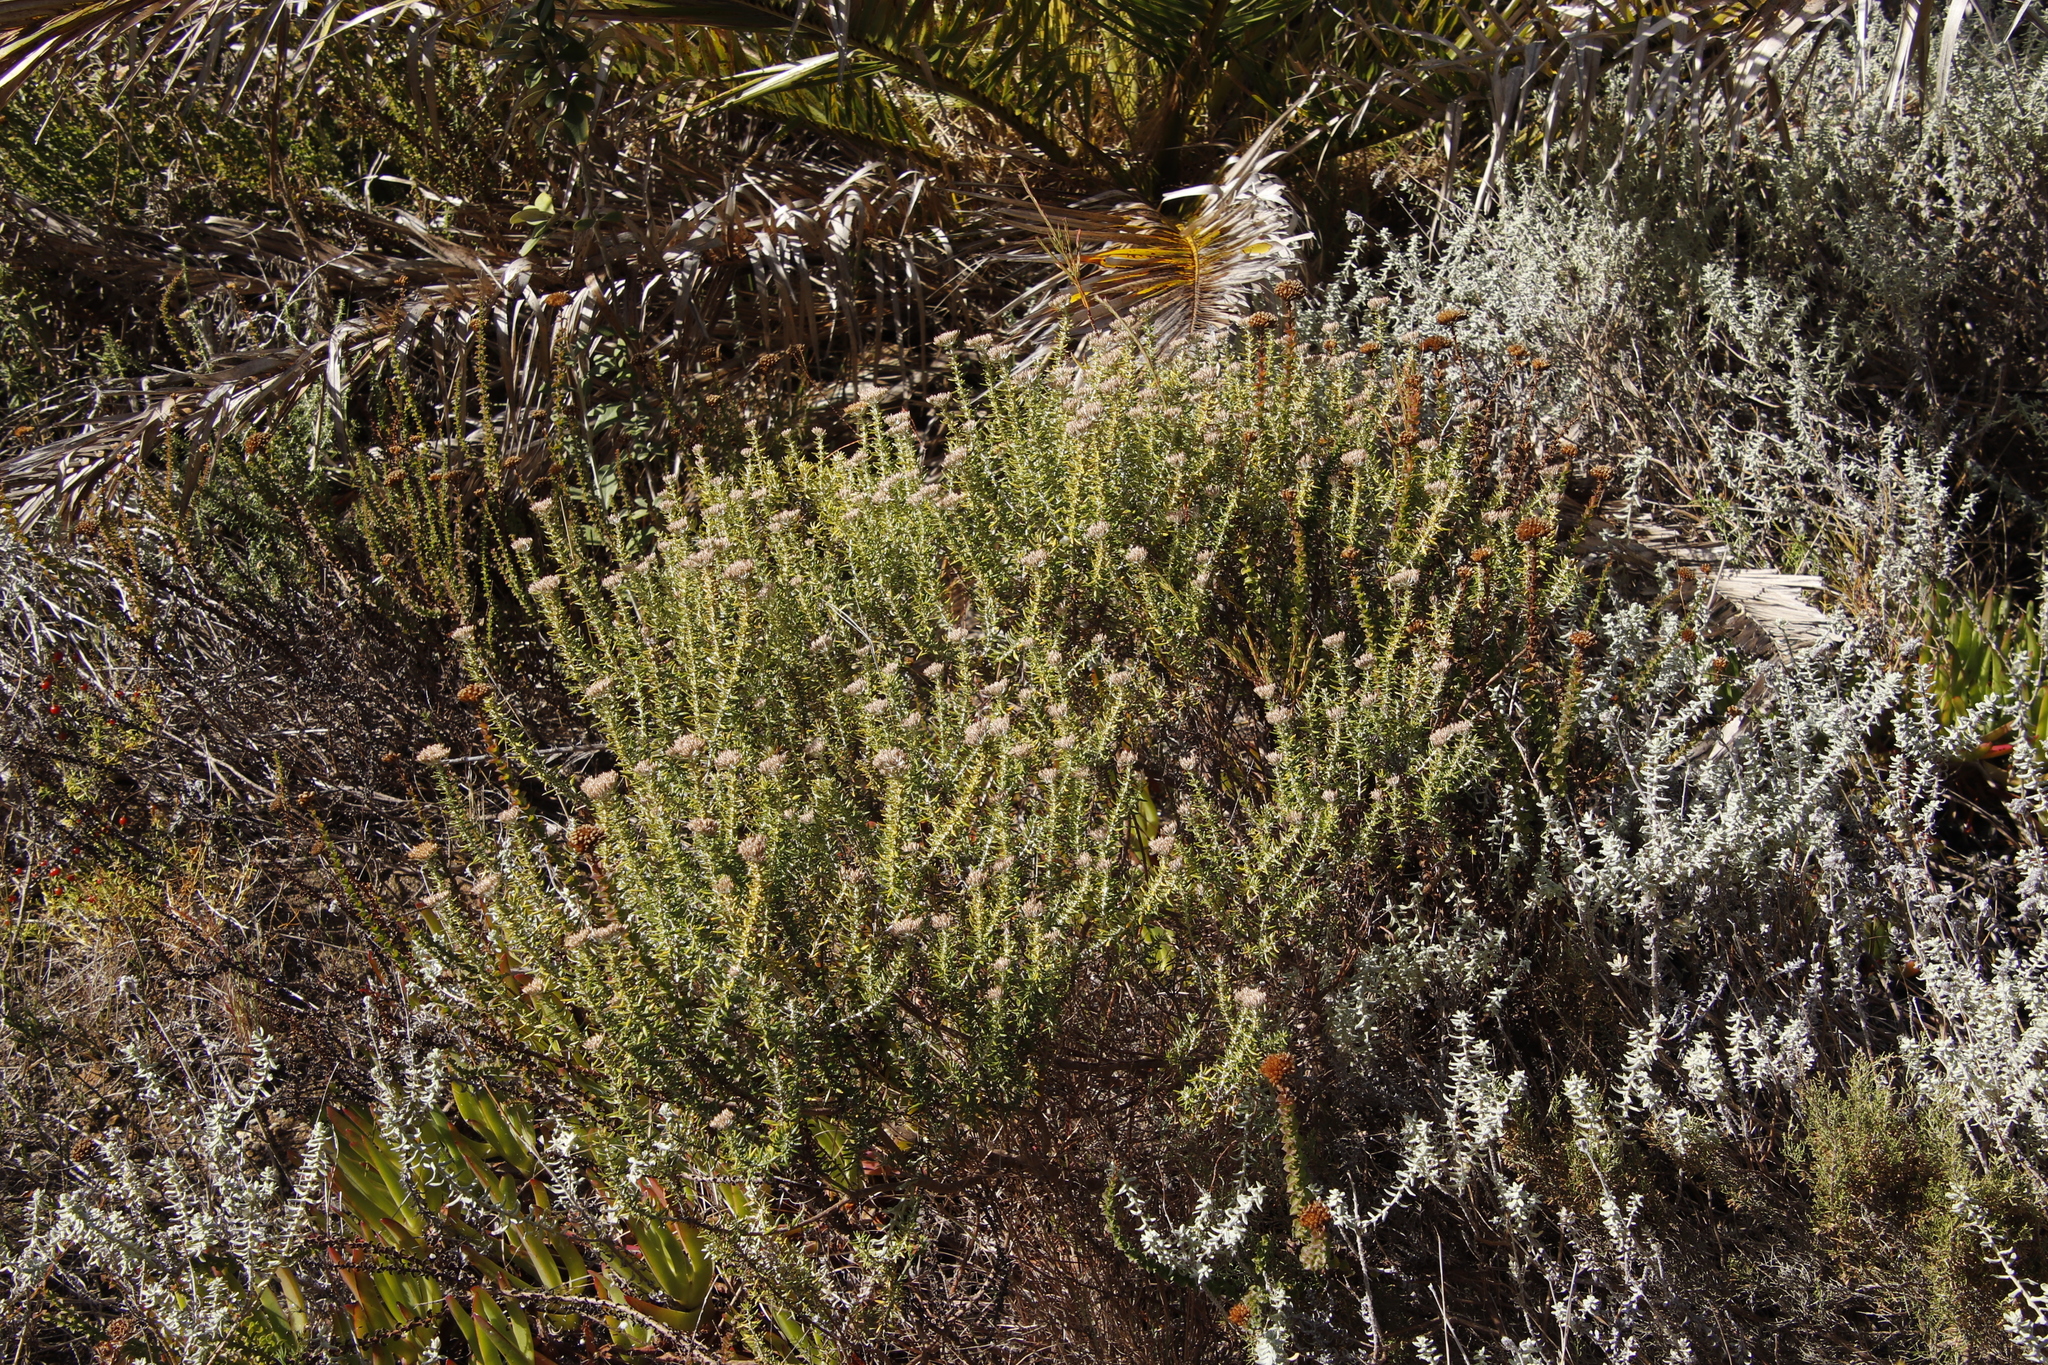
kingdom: Plantae
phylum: Tracheophyta
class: Magnoliopsida
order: Asterales
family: Asteraceae
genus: Metalasia
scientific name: Metalasia densa
